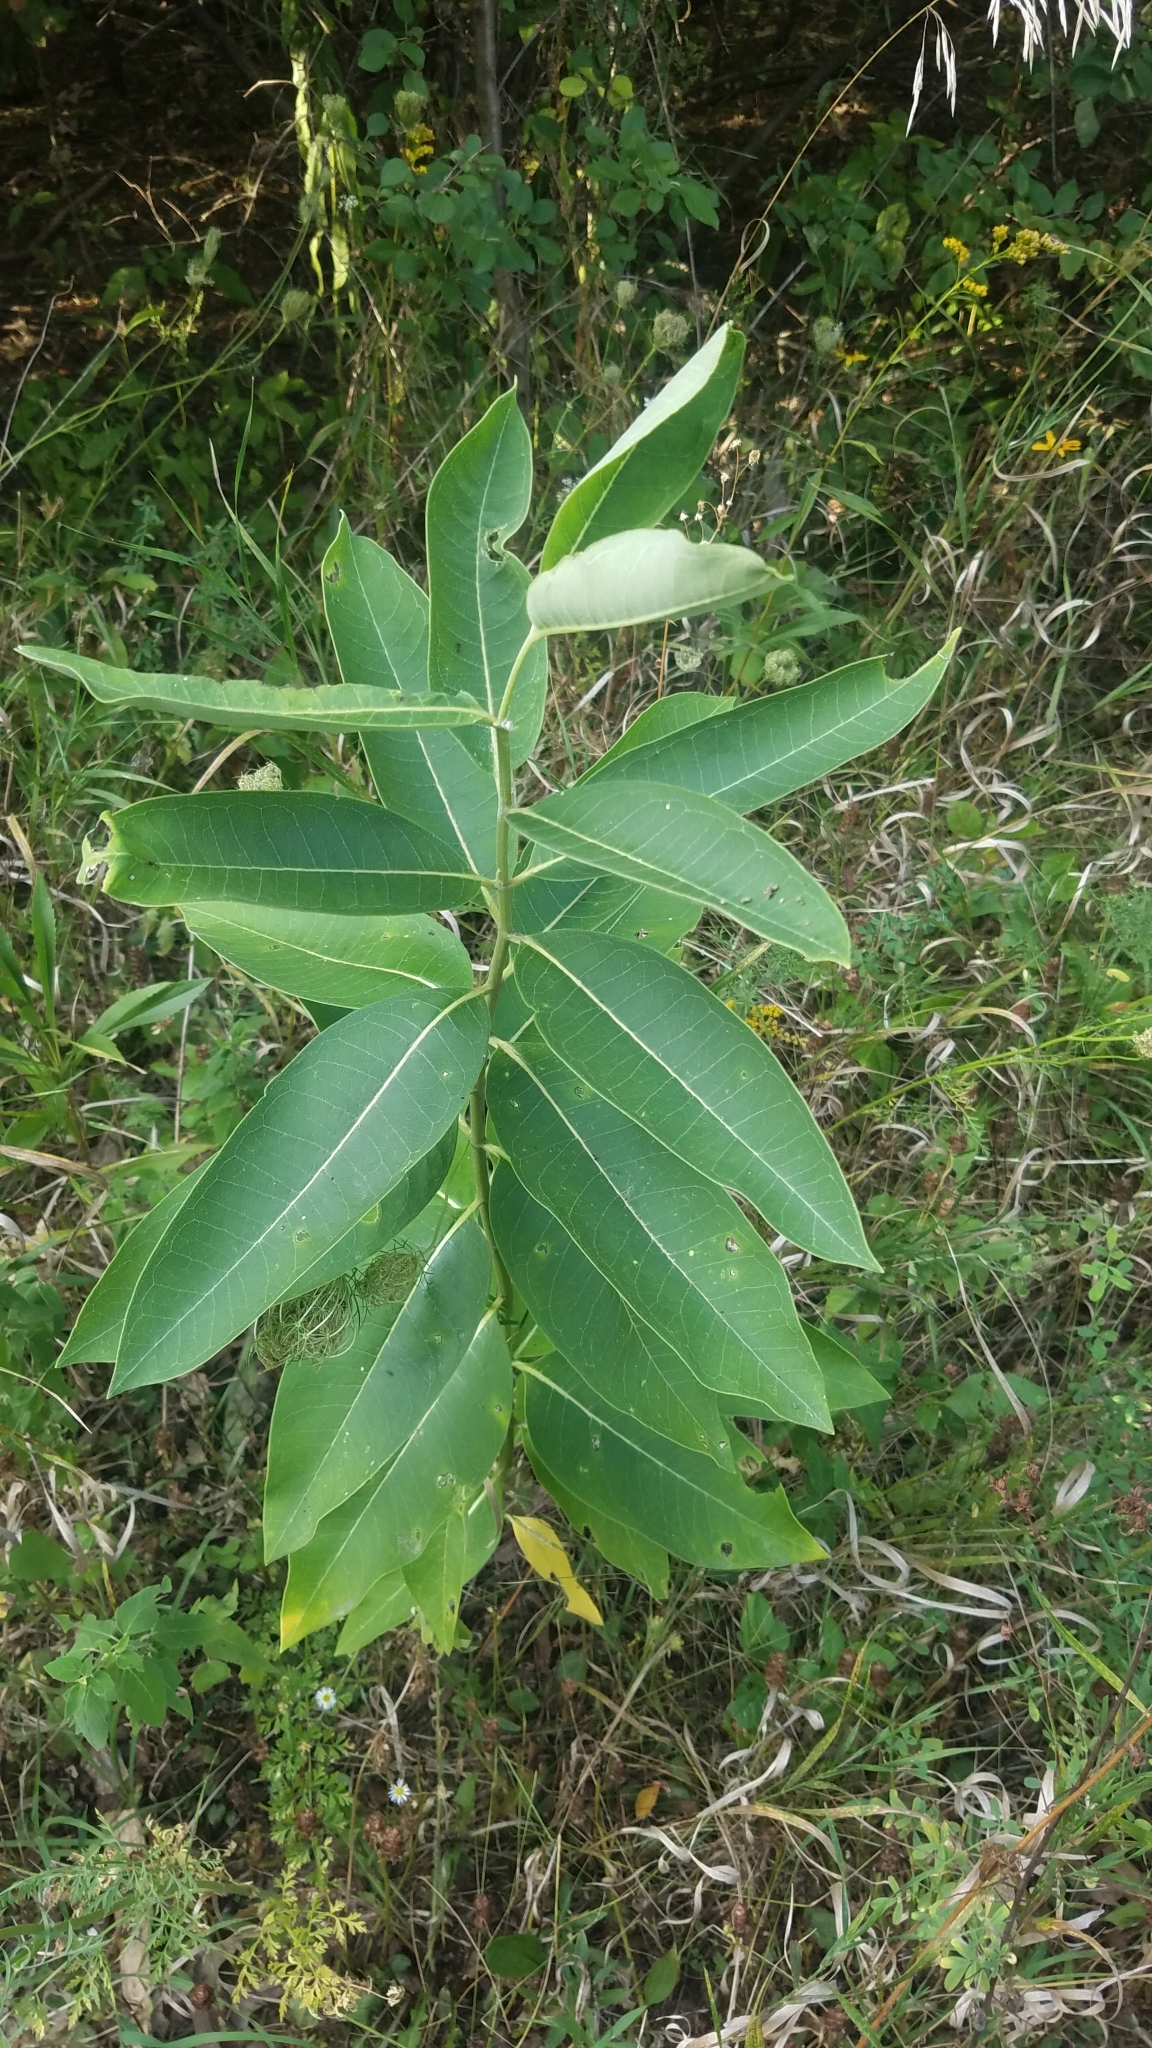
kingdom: Plantae
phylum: Tracheophyta
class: Magnoliopsida
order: Gentianales
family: Apocynaceae
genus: Asclepias
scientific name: Asclepias syriaca
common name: Common milkweed
